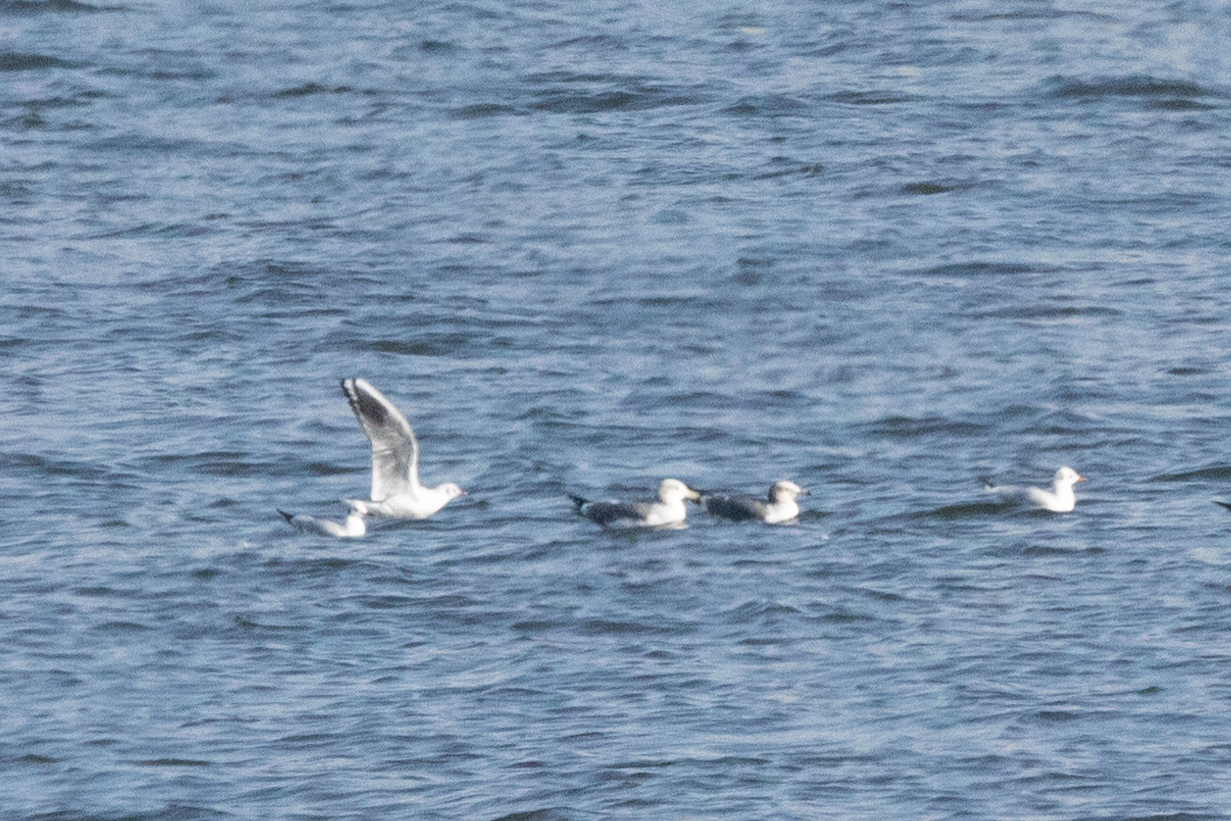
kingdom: Animalia
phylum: Chordata
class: Aves
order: Charadriiformes
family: Laridae
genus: Chroicocephalus
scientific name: Chroicocephalus ridibundus
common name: Black-headed gull
